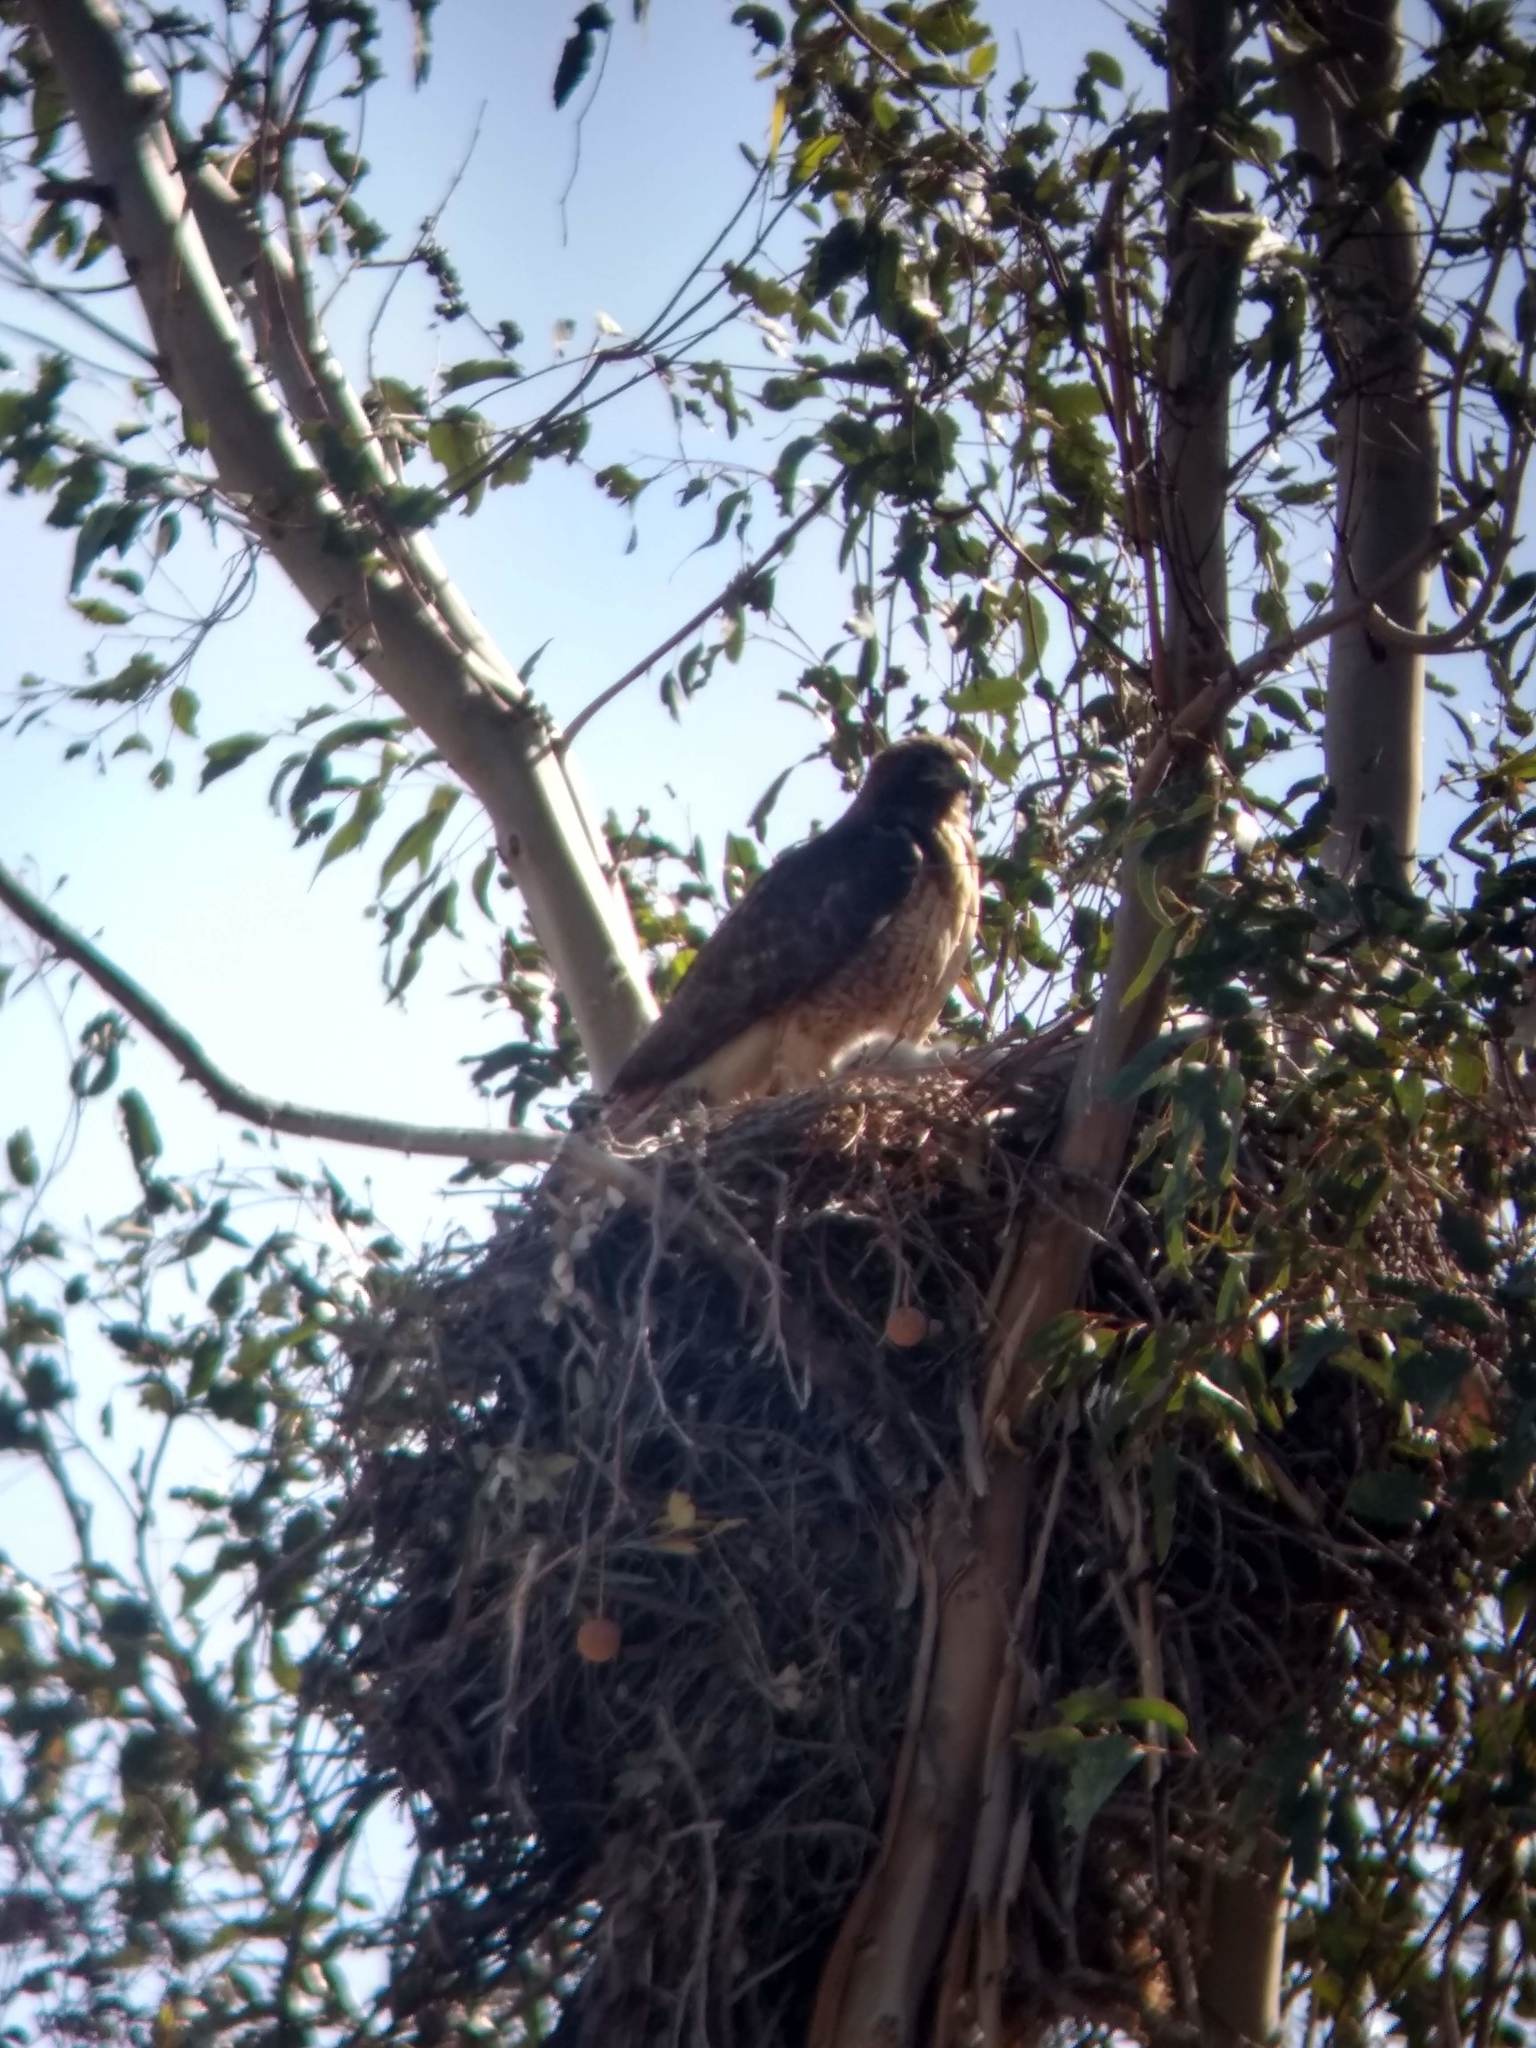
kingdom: Animalia
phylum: Chordata
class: Aves
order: Accipitriformes
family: Accipitridae
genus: Buteo
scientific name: Buteo jamaicensis
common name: Red-tailed hawk
